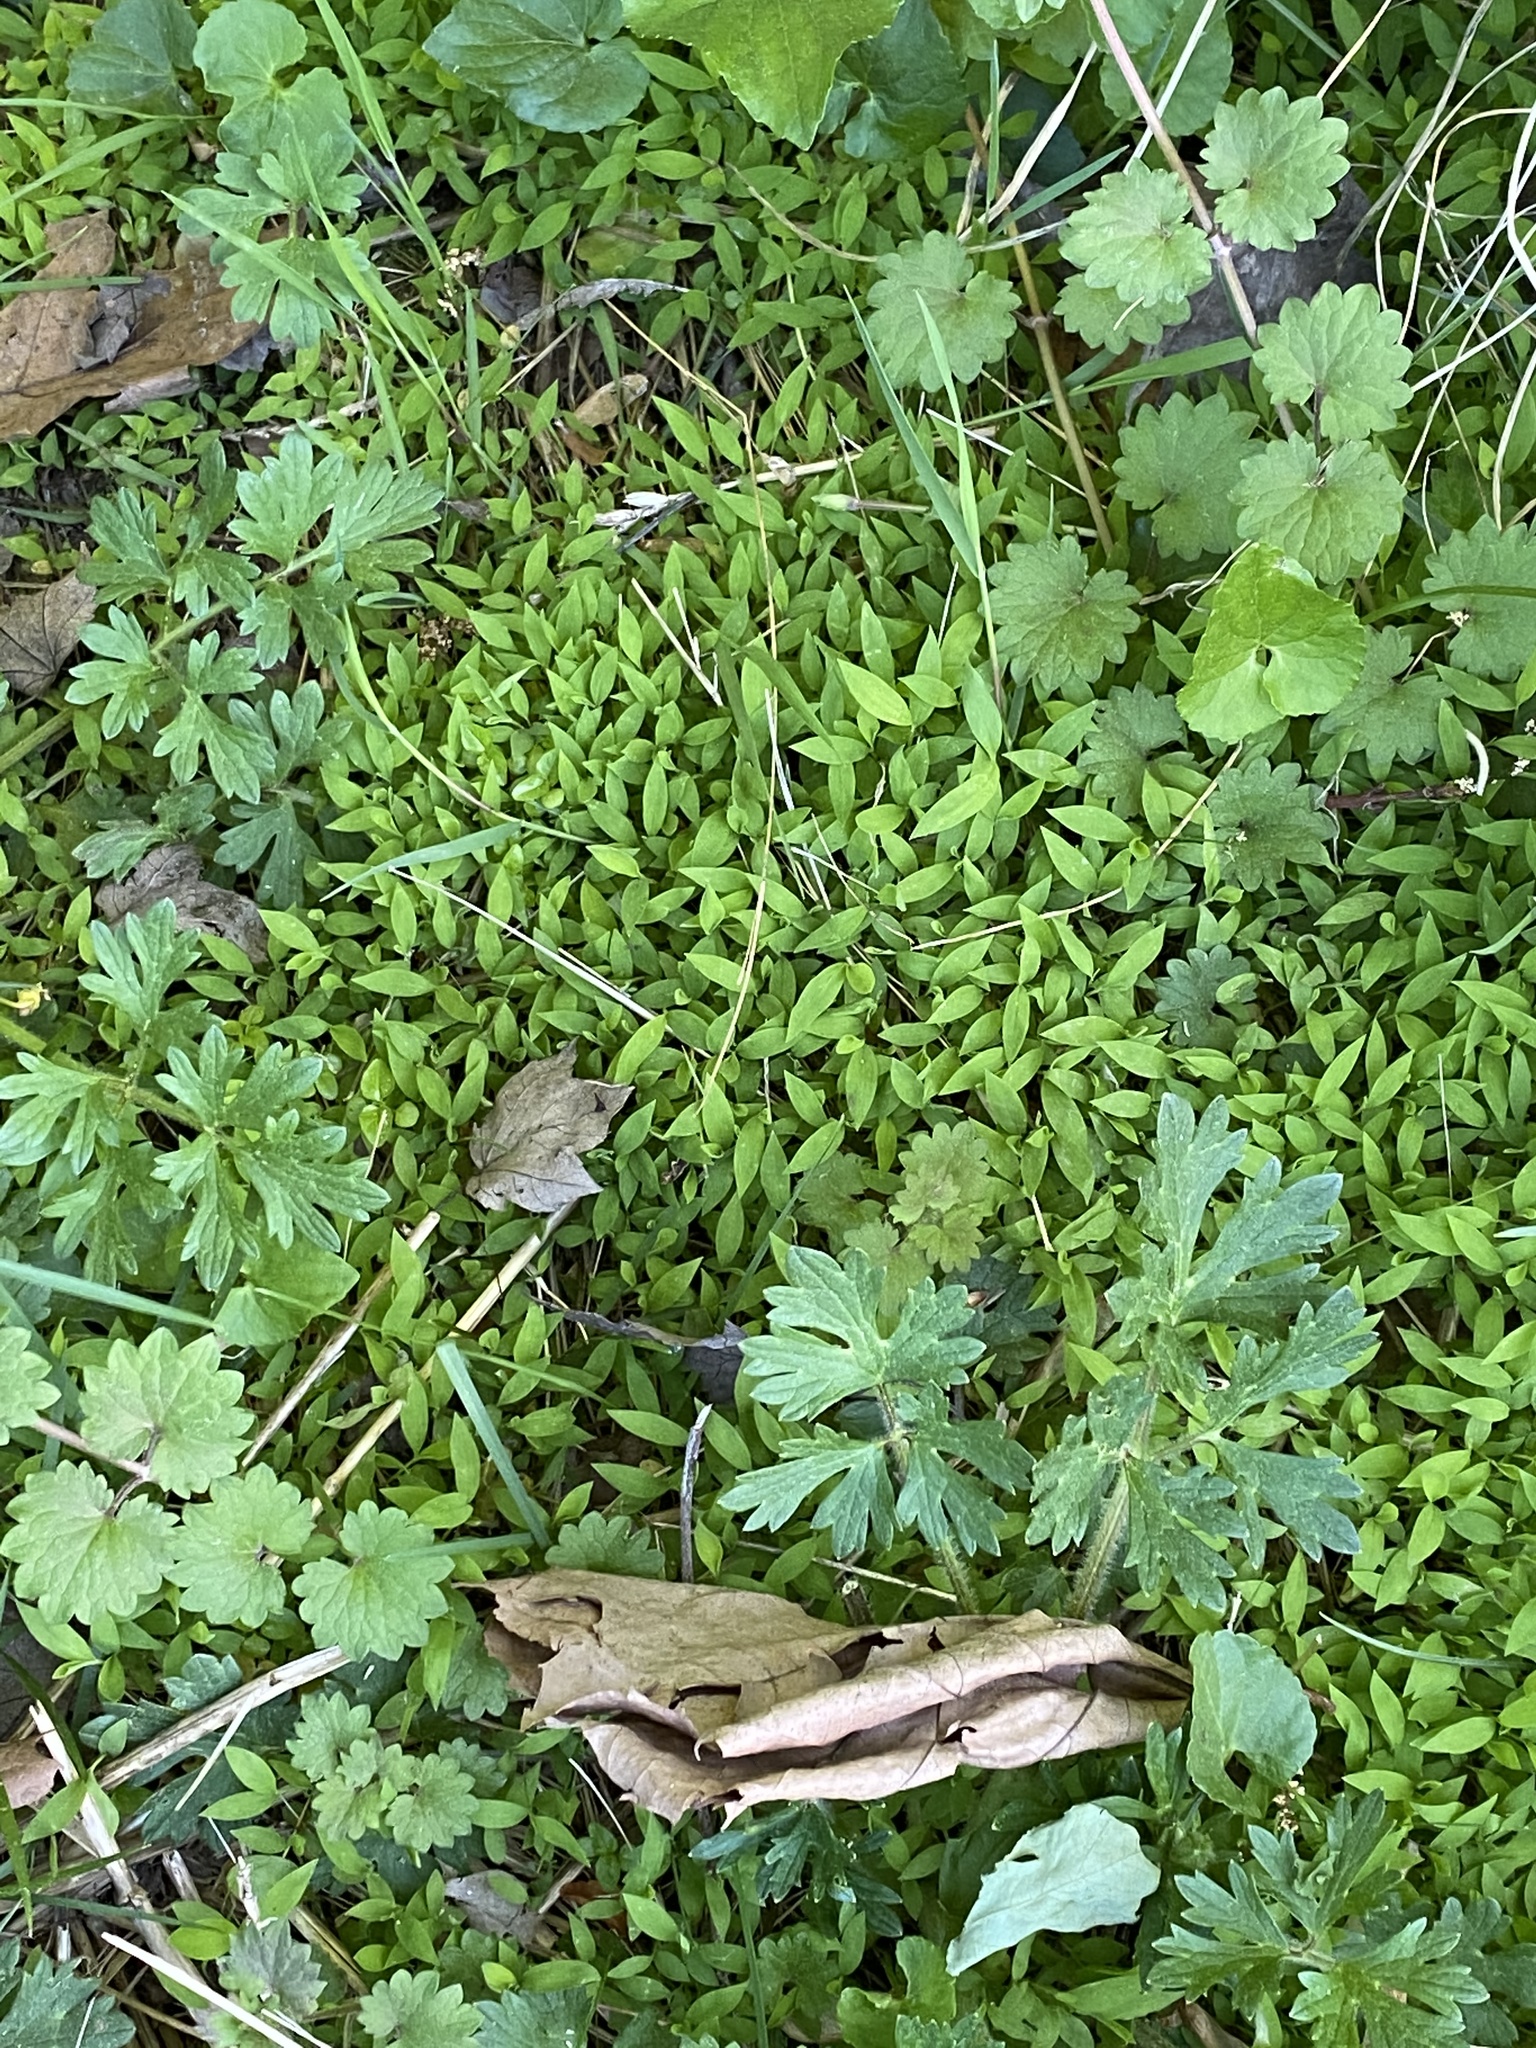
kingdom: Plantae
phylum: Tracheophyta
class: Liliopsida
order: Poales
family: Poaceae
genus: Microstegium
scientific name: Microstegium vimineum
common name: Japanese stiltgrass
